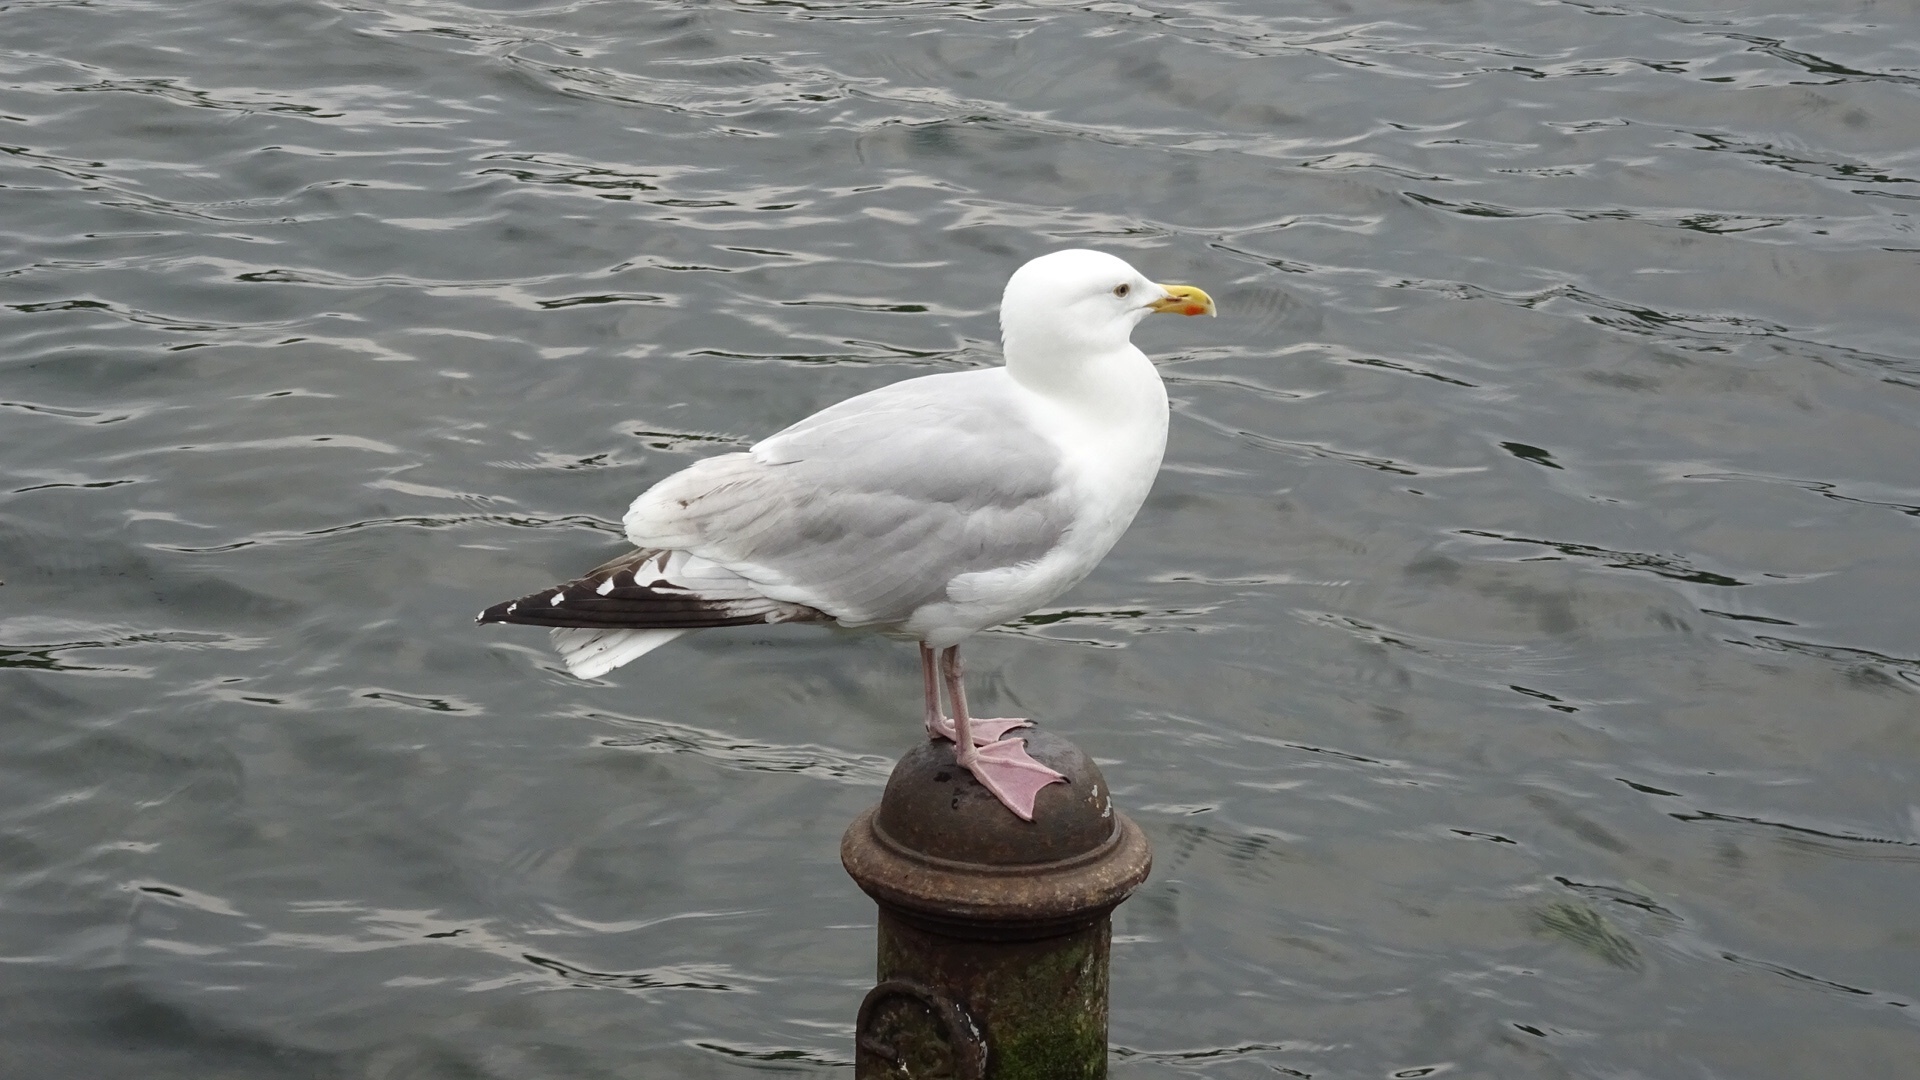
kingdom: Animalia
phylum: Chordata
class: Aves
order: Charadriiformes
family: Laridae
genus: Larus
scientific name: Larus argentatus
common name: Herring gull
